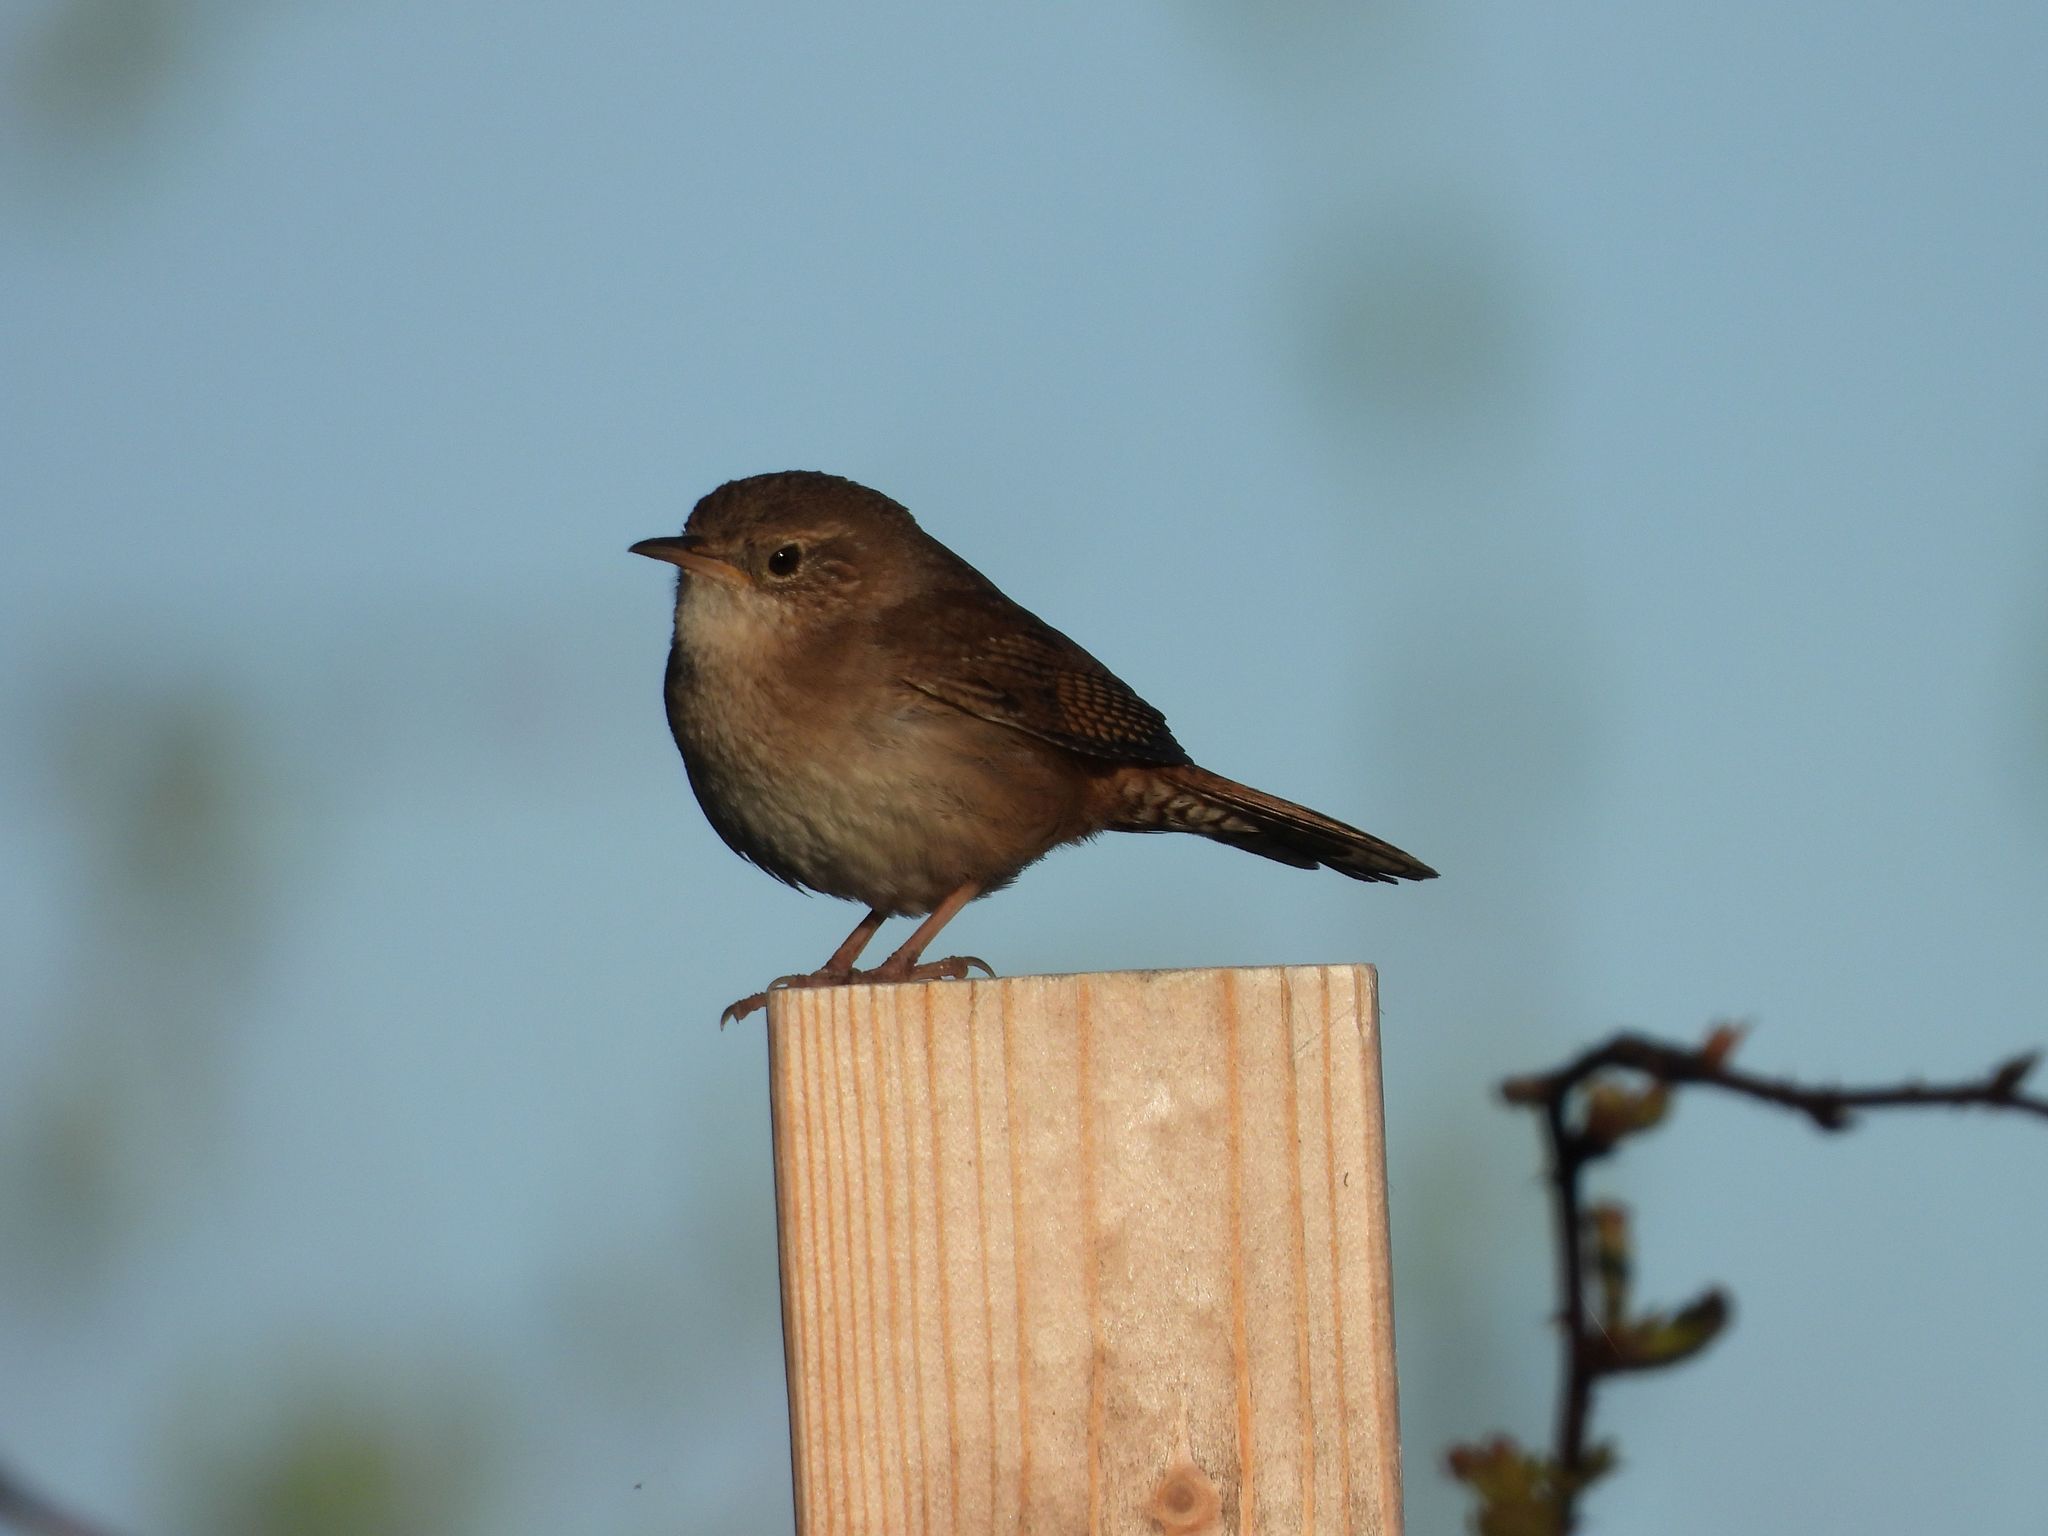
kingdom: Animalia
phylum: Chordata
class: Aves
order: Passeriformes
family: Troglodytidae
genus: Troglodytes
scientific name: Troglodytes aedon
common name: House wren
